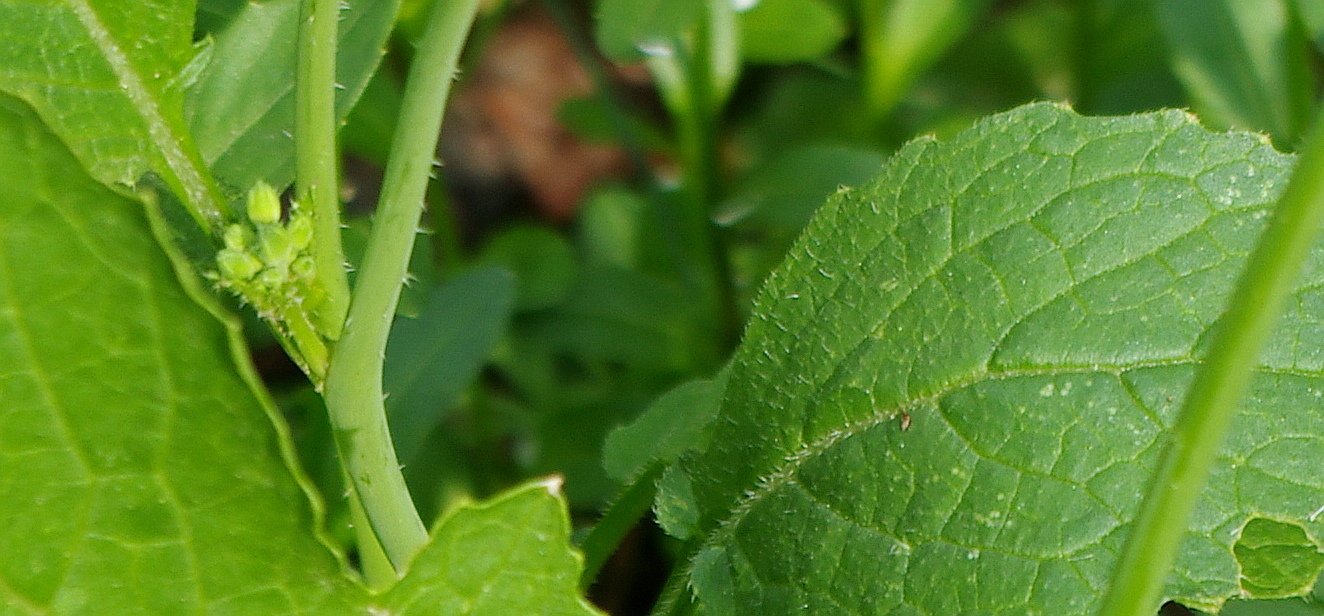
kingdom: Plantae
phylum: Tracheophyta
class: Magnoliopsida
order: Brassicales
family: Brassicaceae
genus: Brassica
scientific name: Brassica rapa
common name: Field mustard
